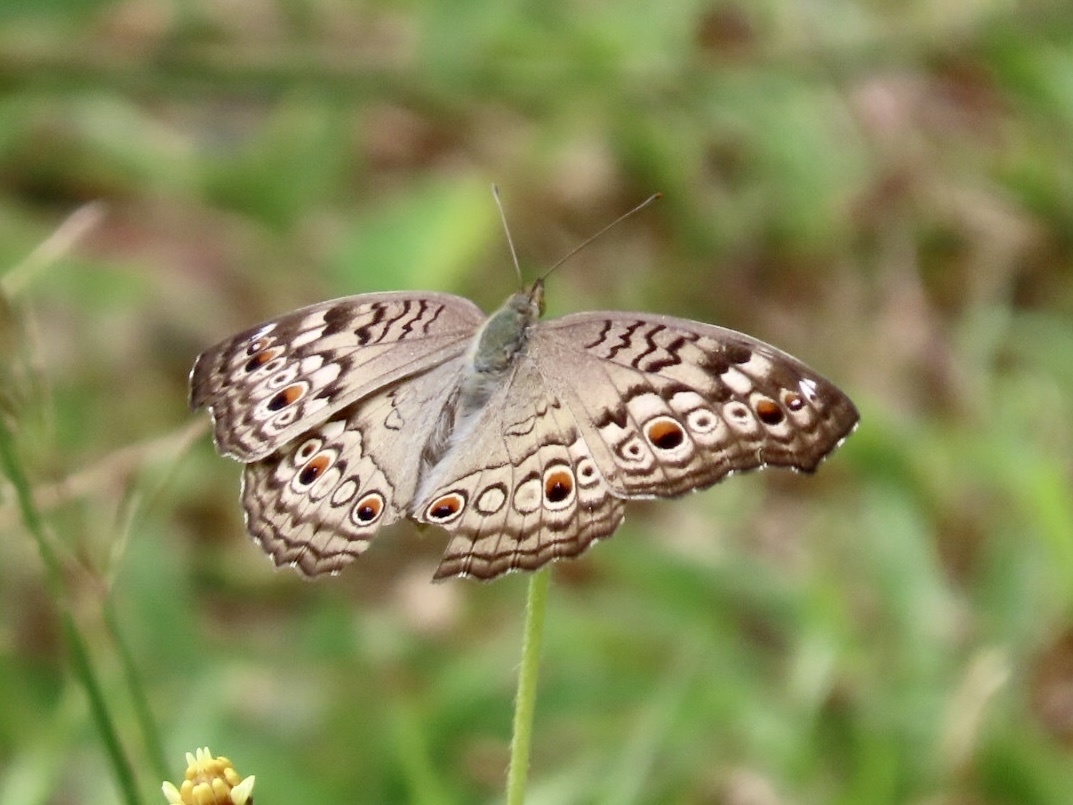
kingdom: Animalia
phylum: Arthropoda
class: Insecta
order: Lepidoptera
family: Nymphalidae
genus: Junonia
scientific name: Junonia atlites
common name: Grey pansy
